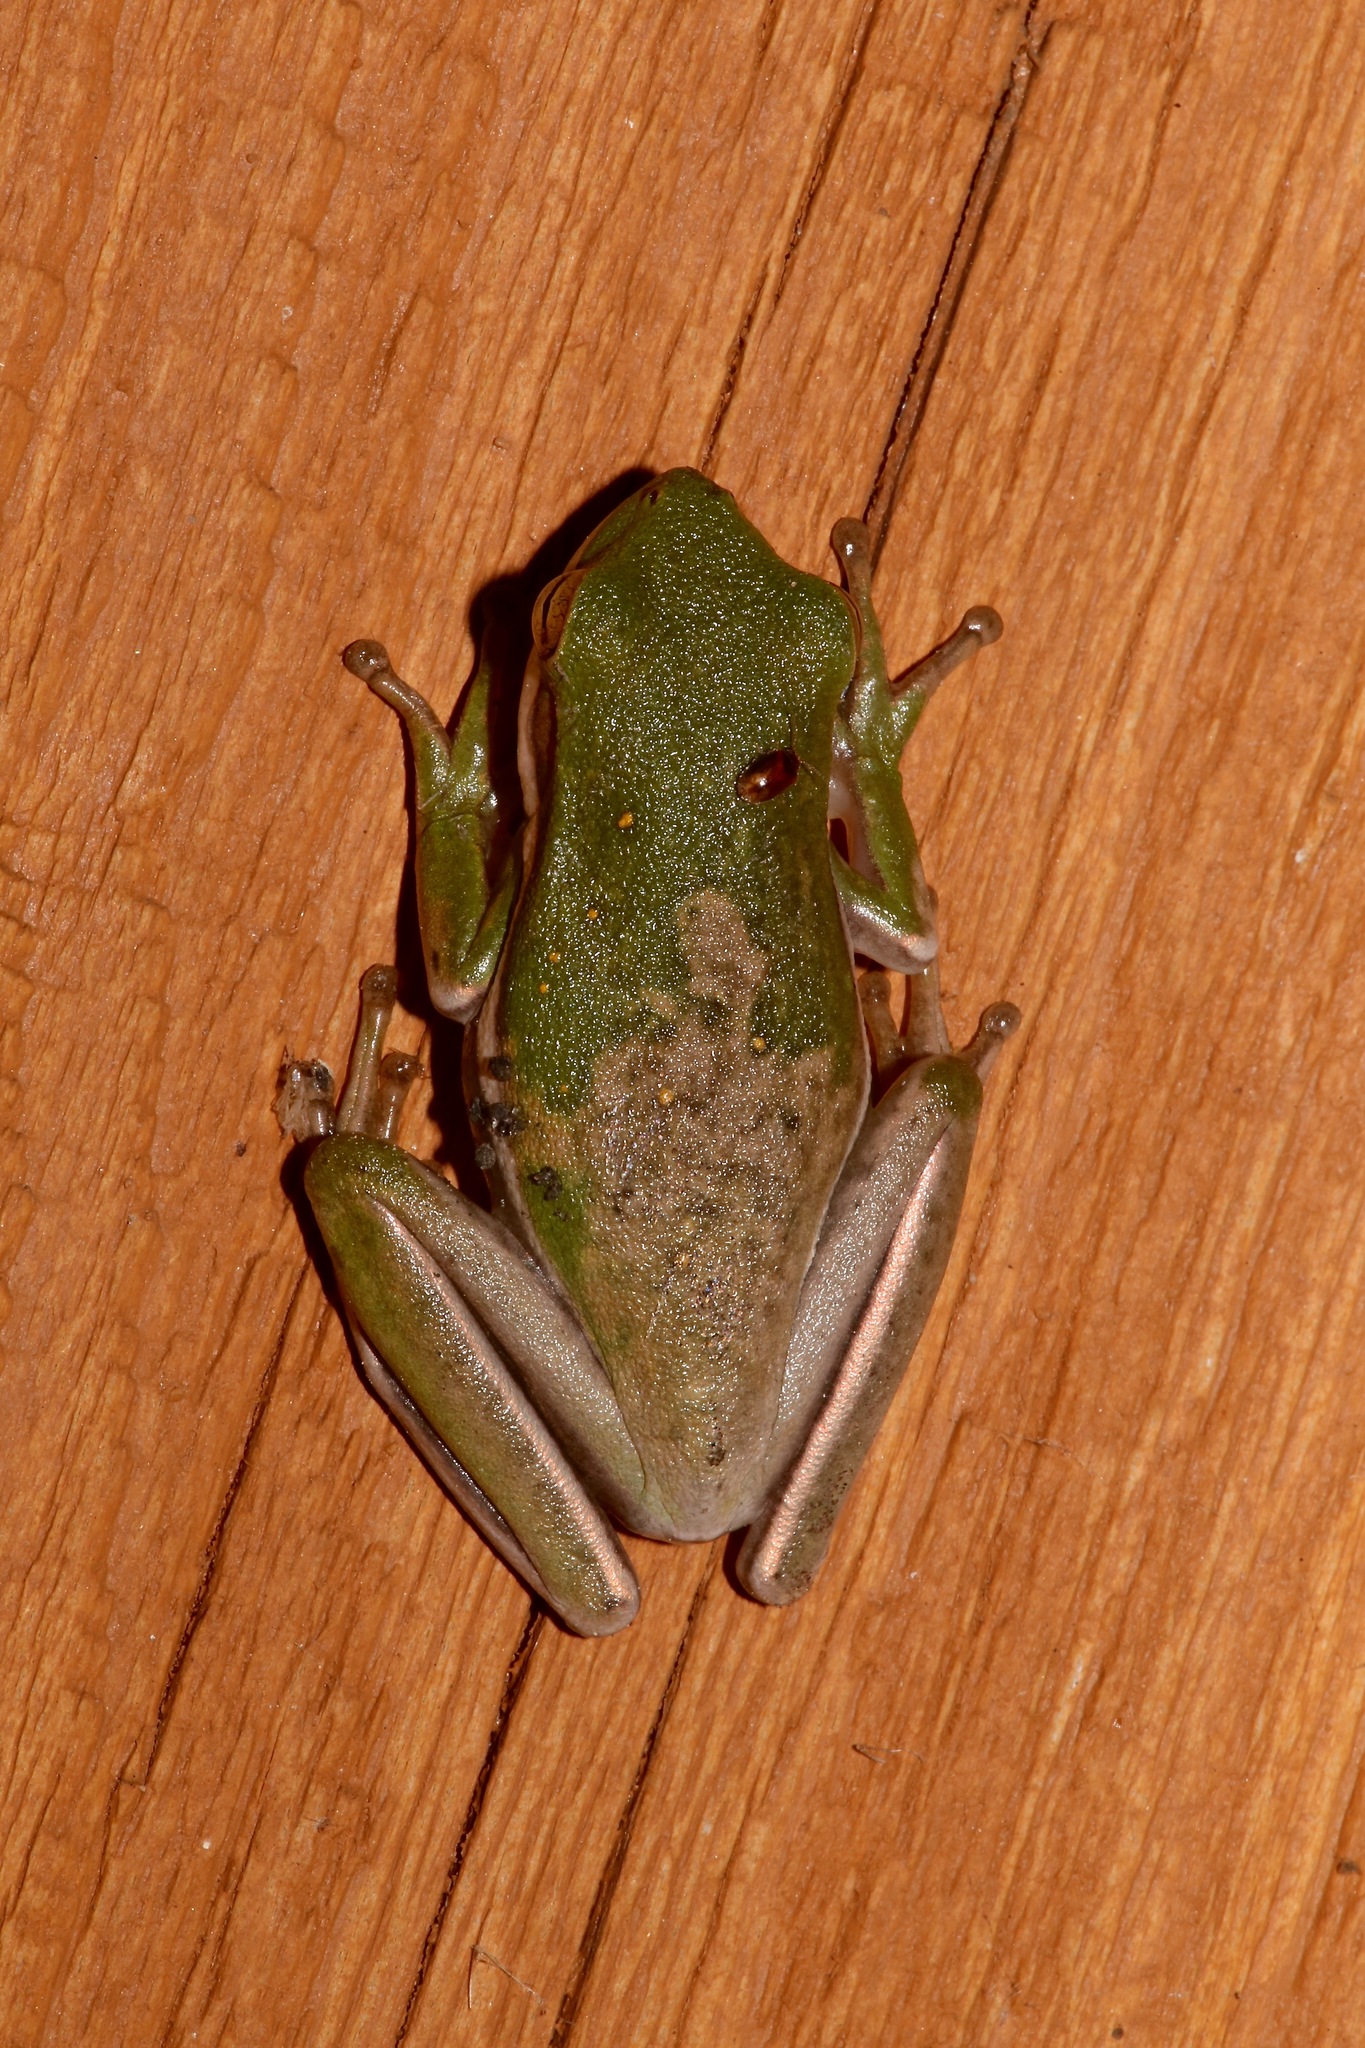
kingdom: Animalia
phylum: Chordata
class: Amphibia
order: Anura
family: Hylidae
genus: Dryophytes
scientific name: Dryophytes cinereus
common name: Green treefrog
